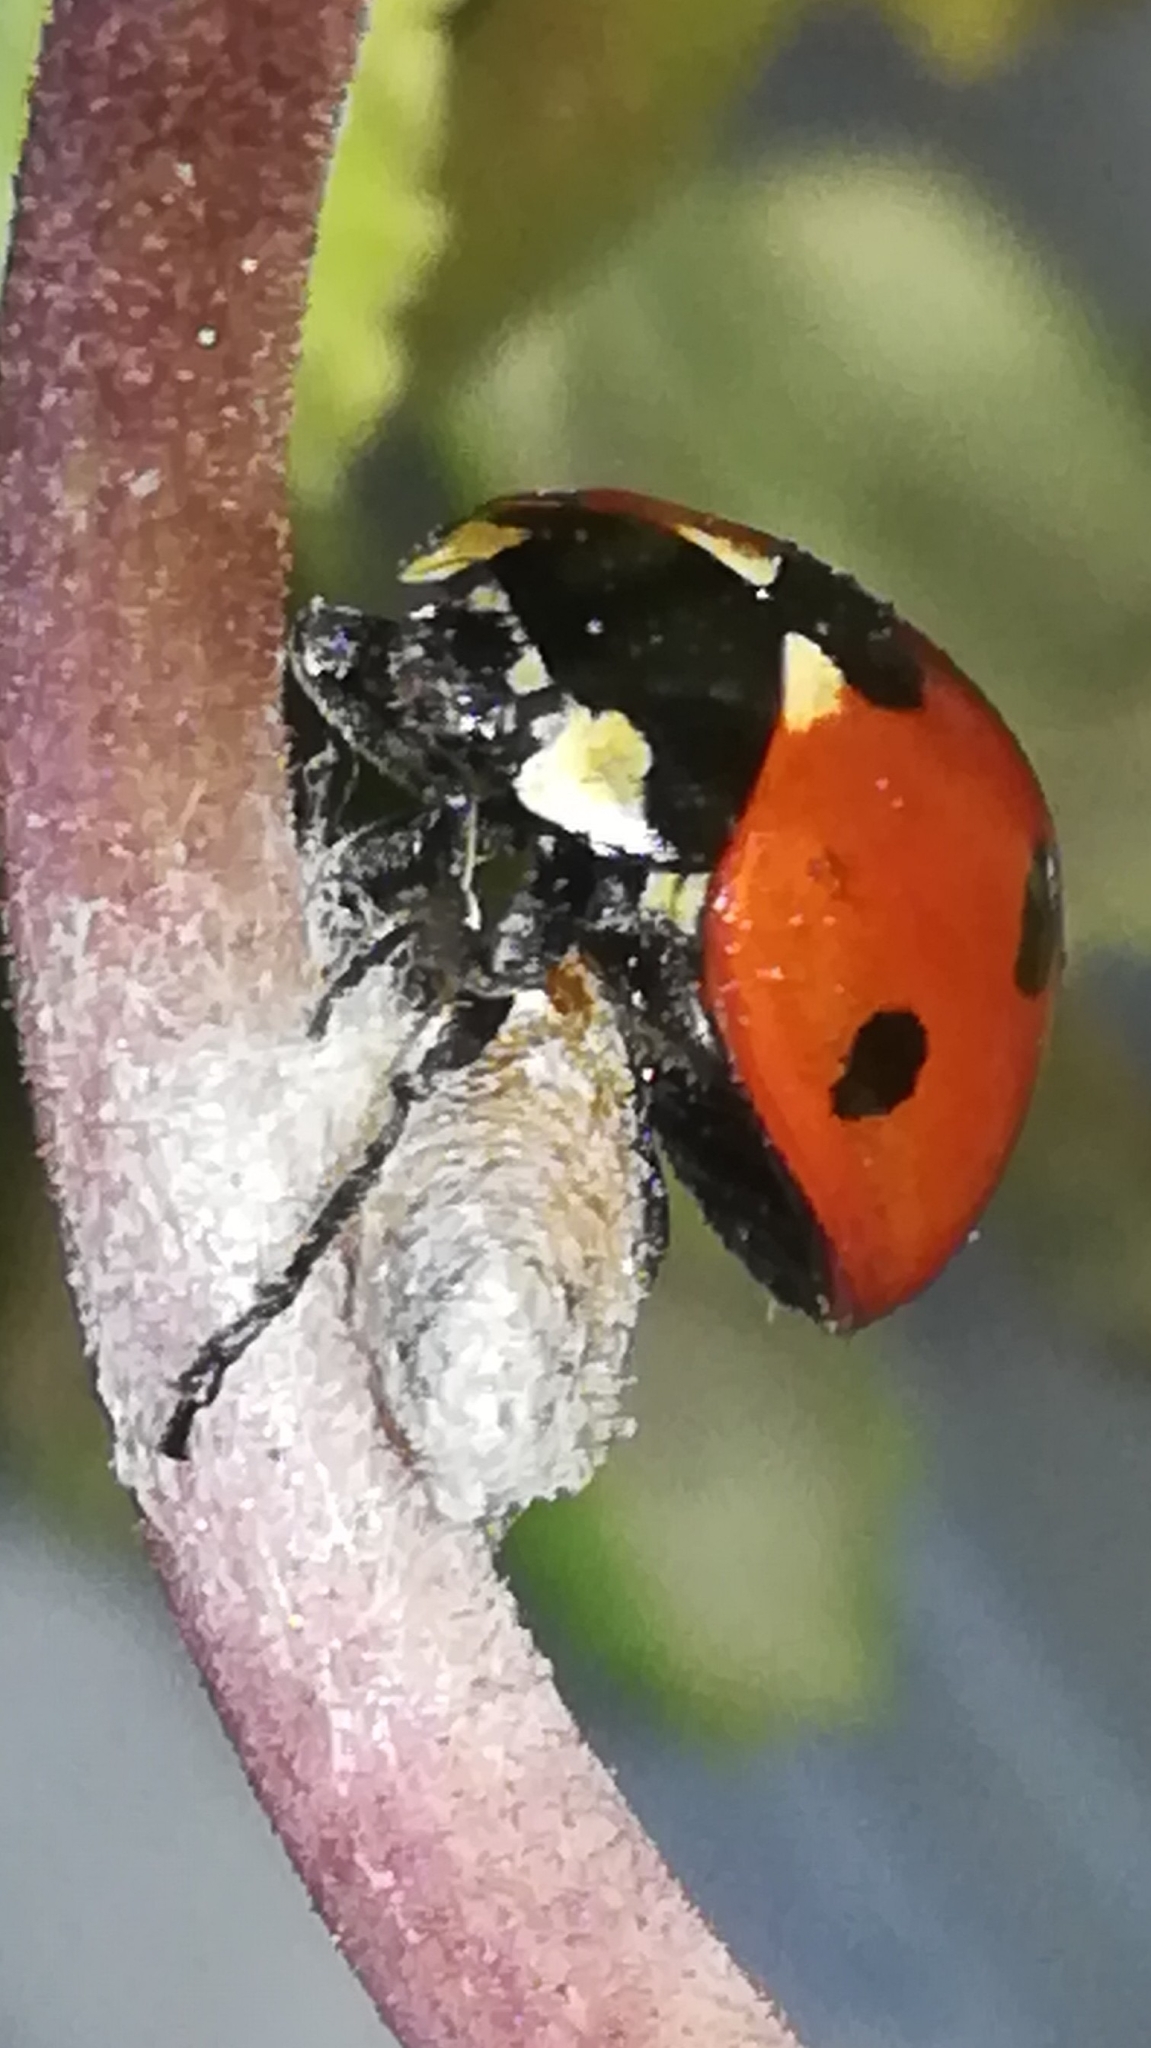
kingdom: Viruses
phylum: Pisuviricota
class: Pisoniviricetes
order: Picornavirales
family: Iflaviridae
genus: Iflavirus
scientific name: Iflavirus dinococcinellae
